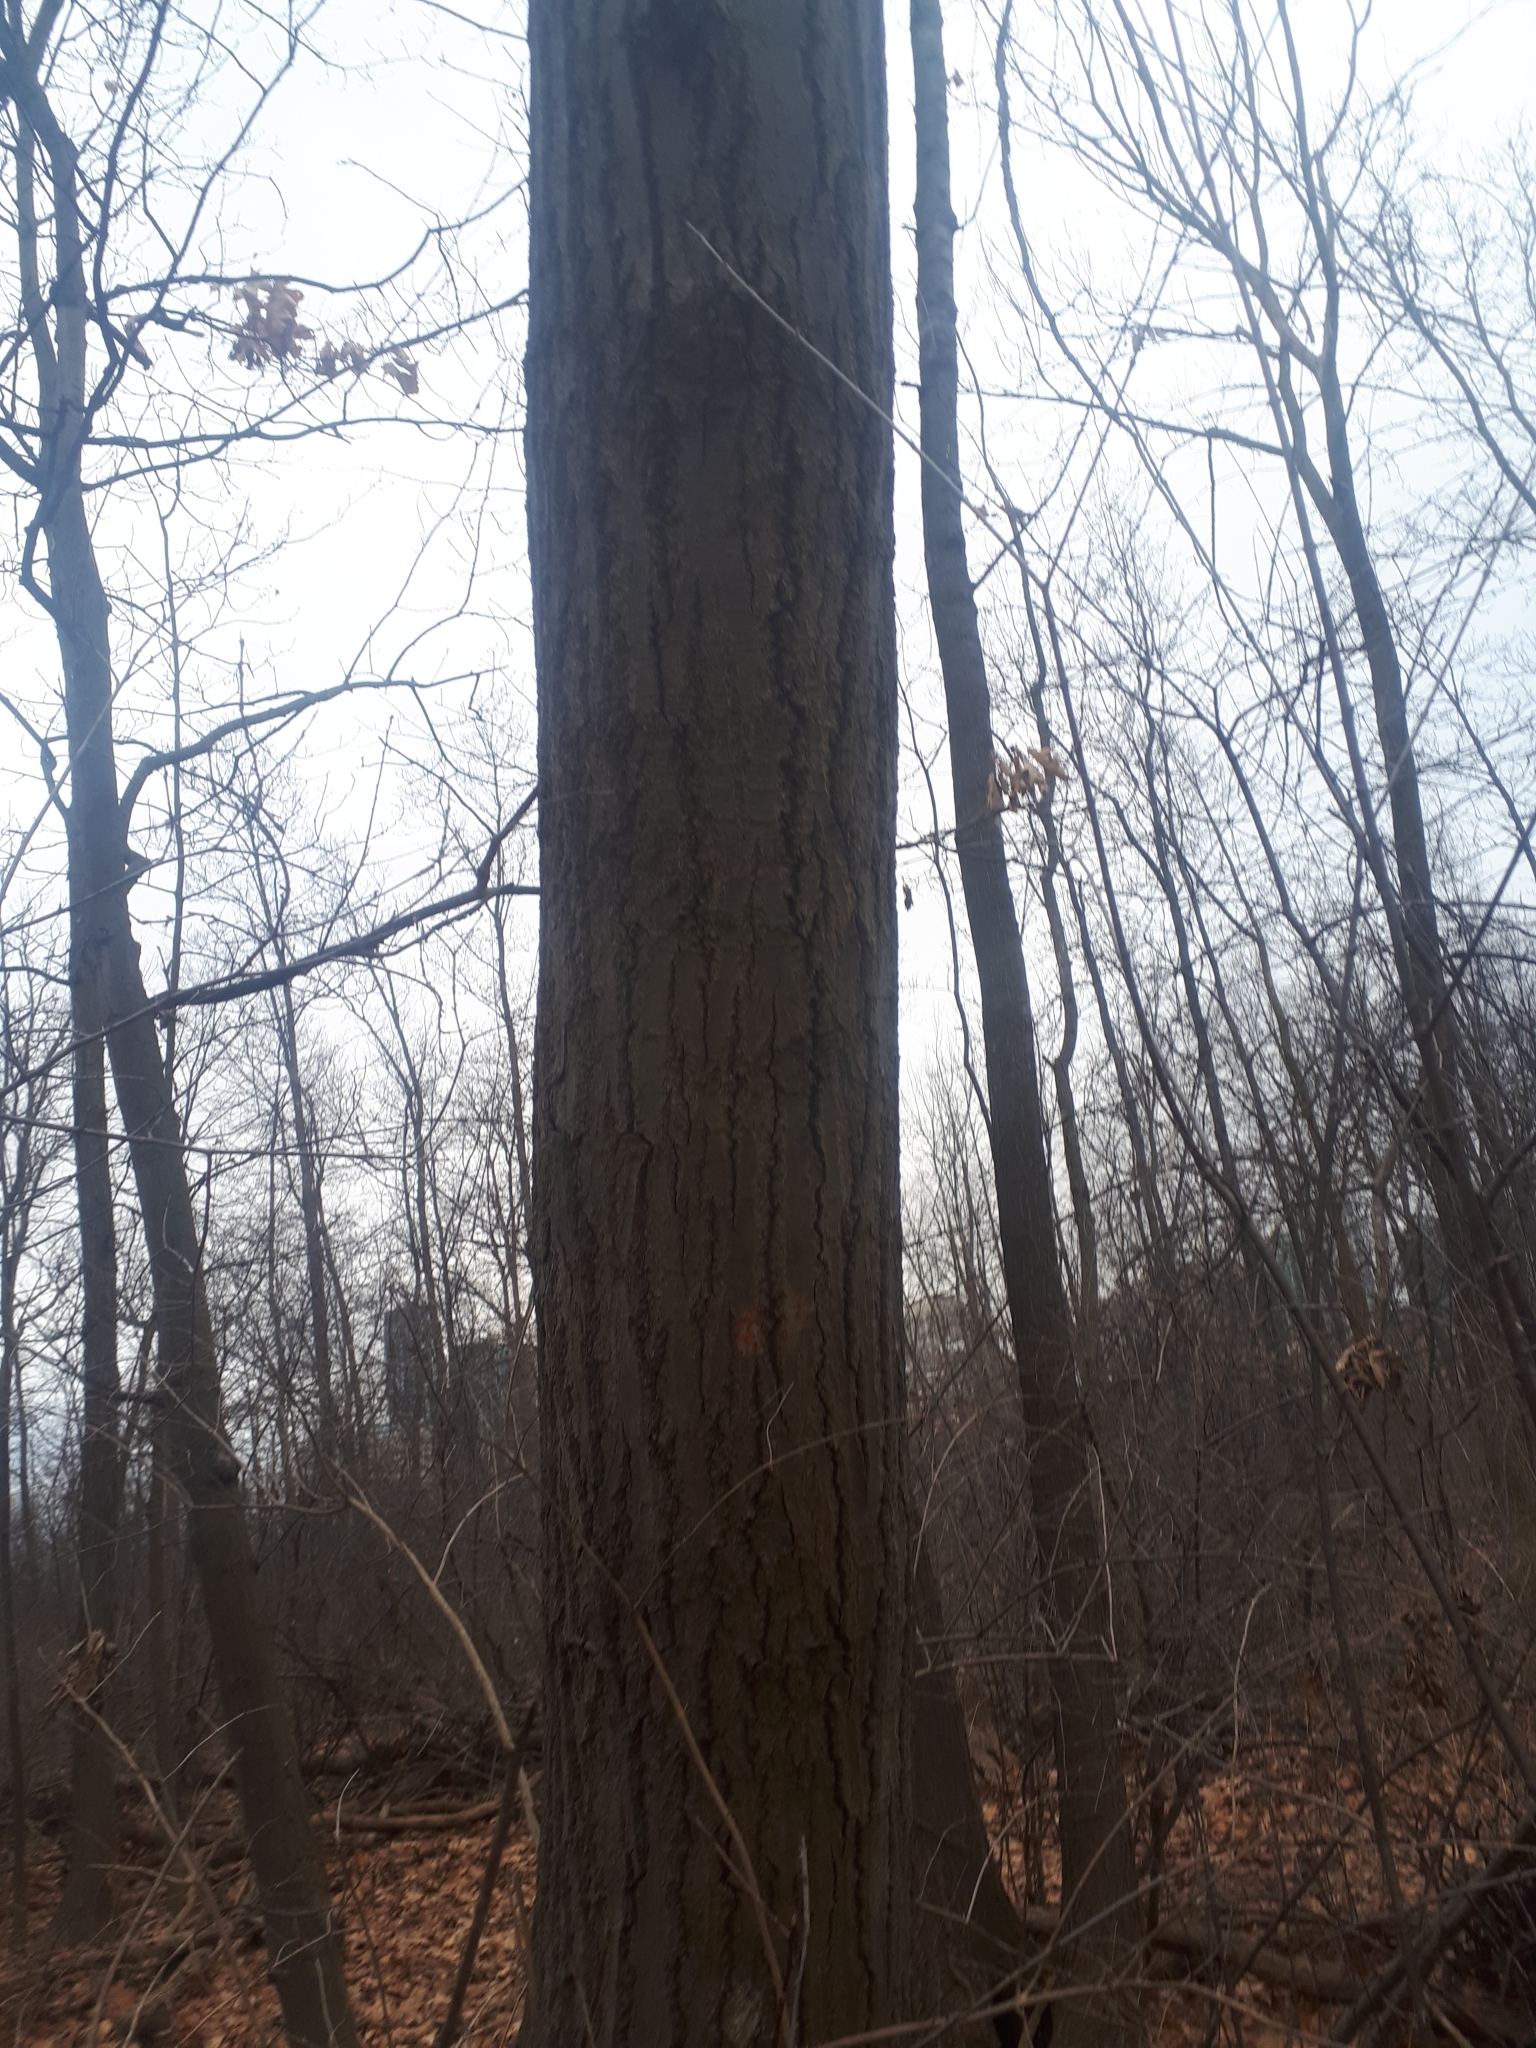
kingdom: Plantae
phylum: Tracheophyta
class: Magnoliopsida
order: Fagales
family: Fagaceae
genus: Quercus
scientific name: Quercus rubra
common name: Red oak
